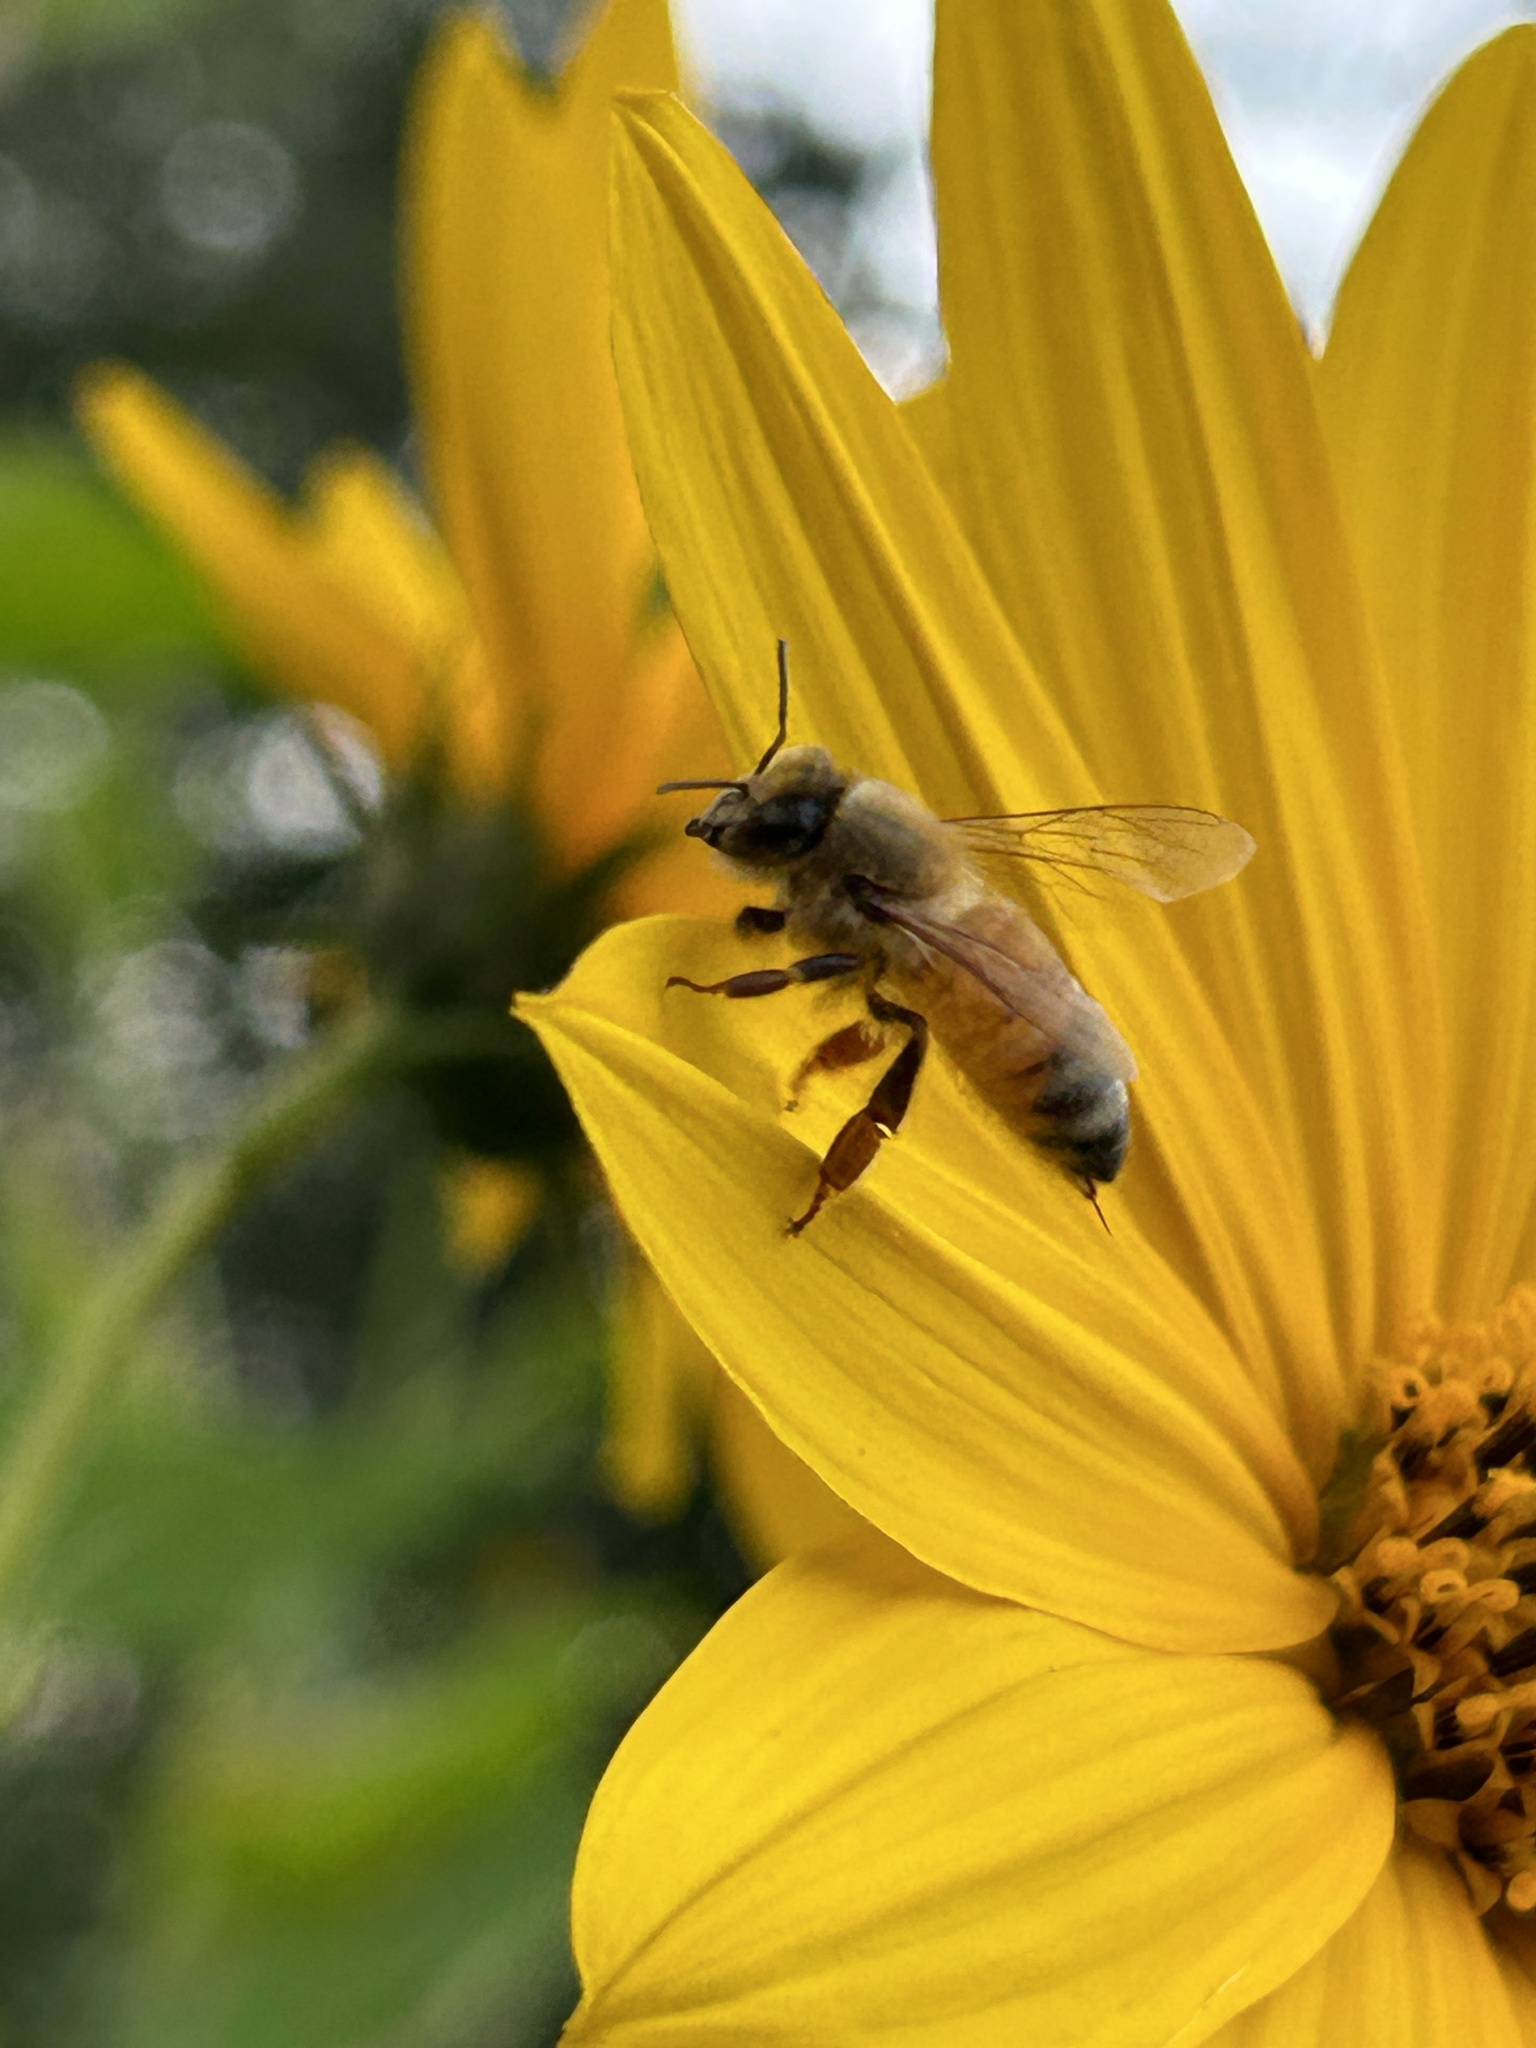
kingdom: Animalia
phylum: Arthropoda
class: Insecta
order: Hymenoptera
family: Apidae
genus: Apis
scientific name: Apis mellifera
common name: Honey bee
